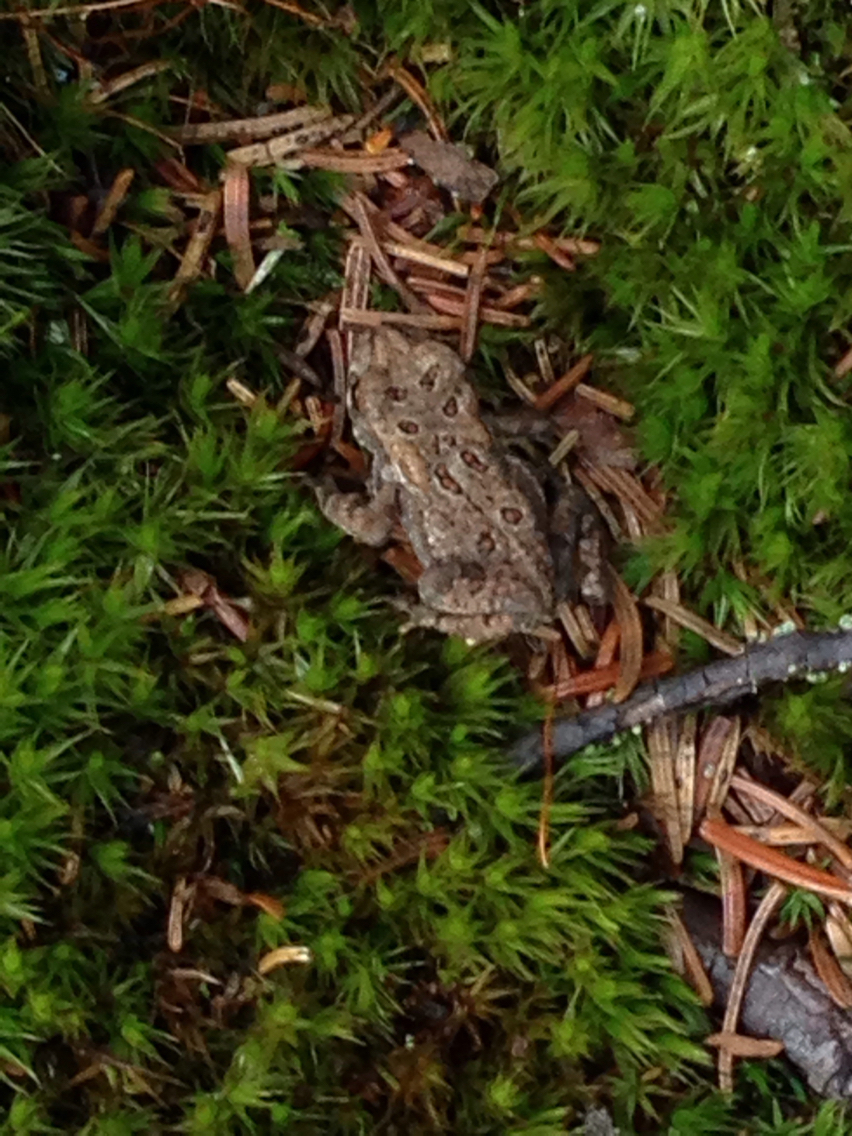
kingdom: Animalia
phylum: Chordata
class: Amphibia
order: Anura
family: Bufonidae
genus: Anaxyrus
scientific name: Anaxyrus americanus
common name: American toad
